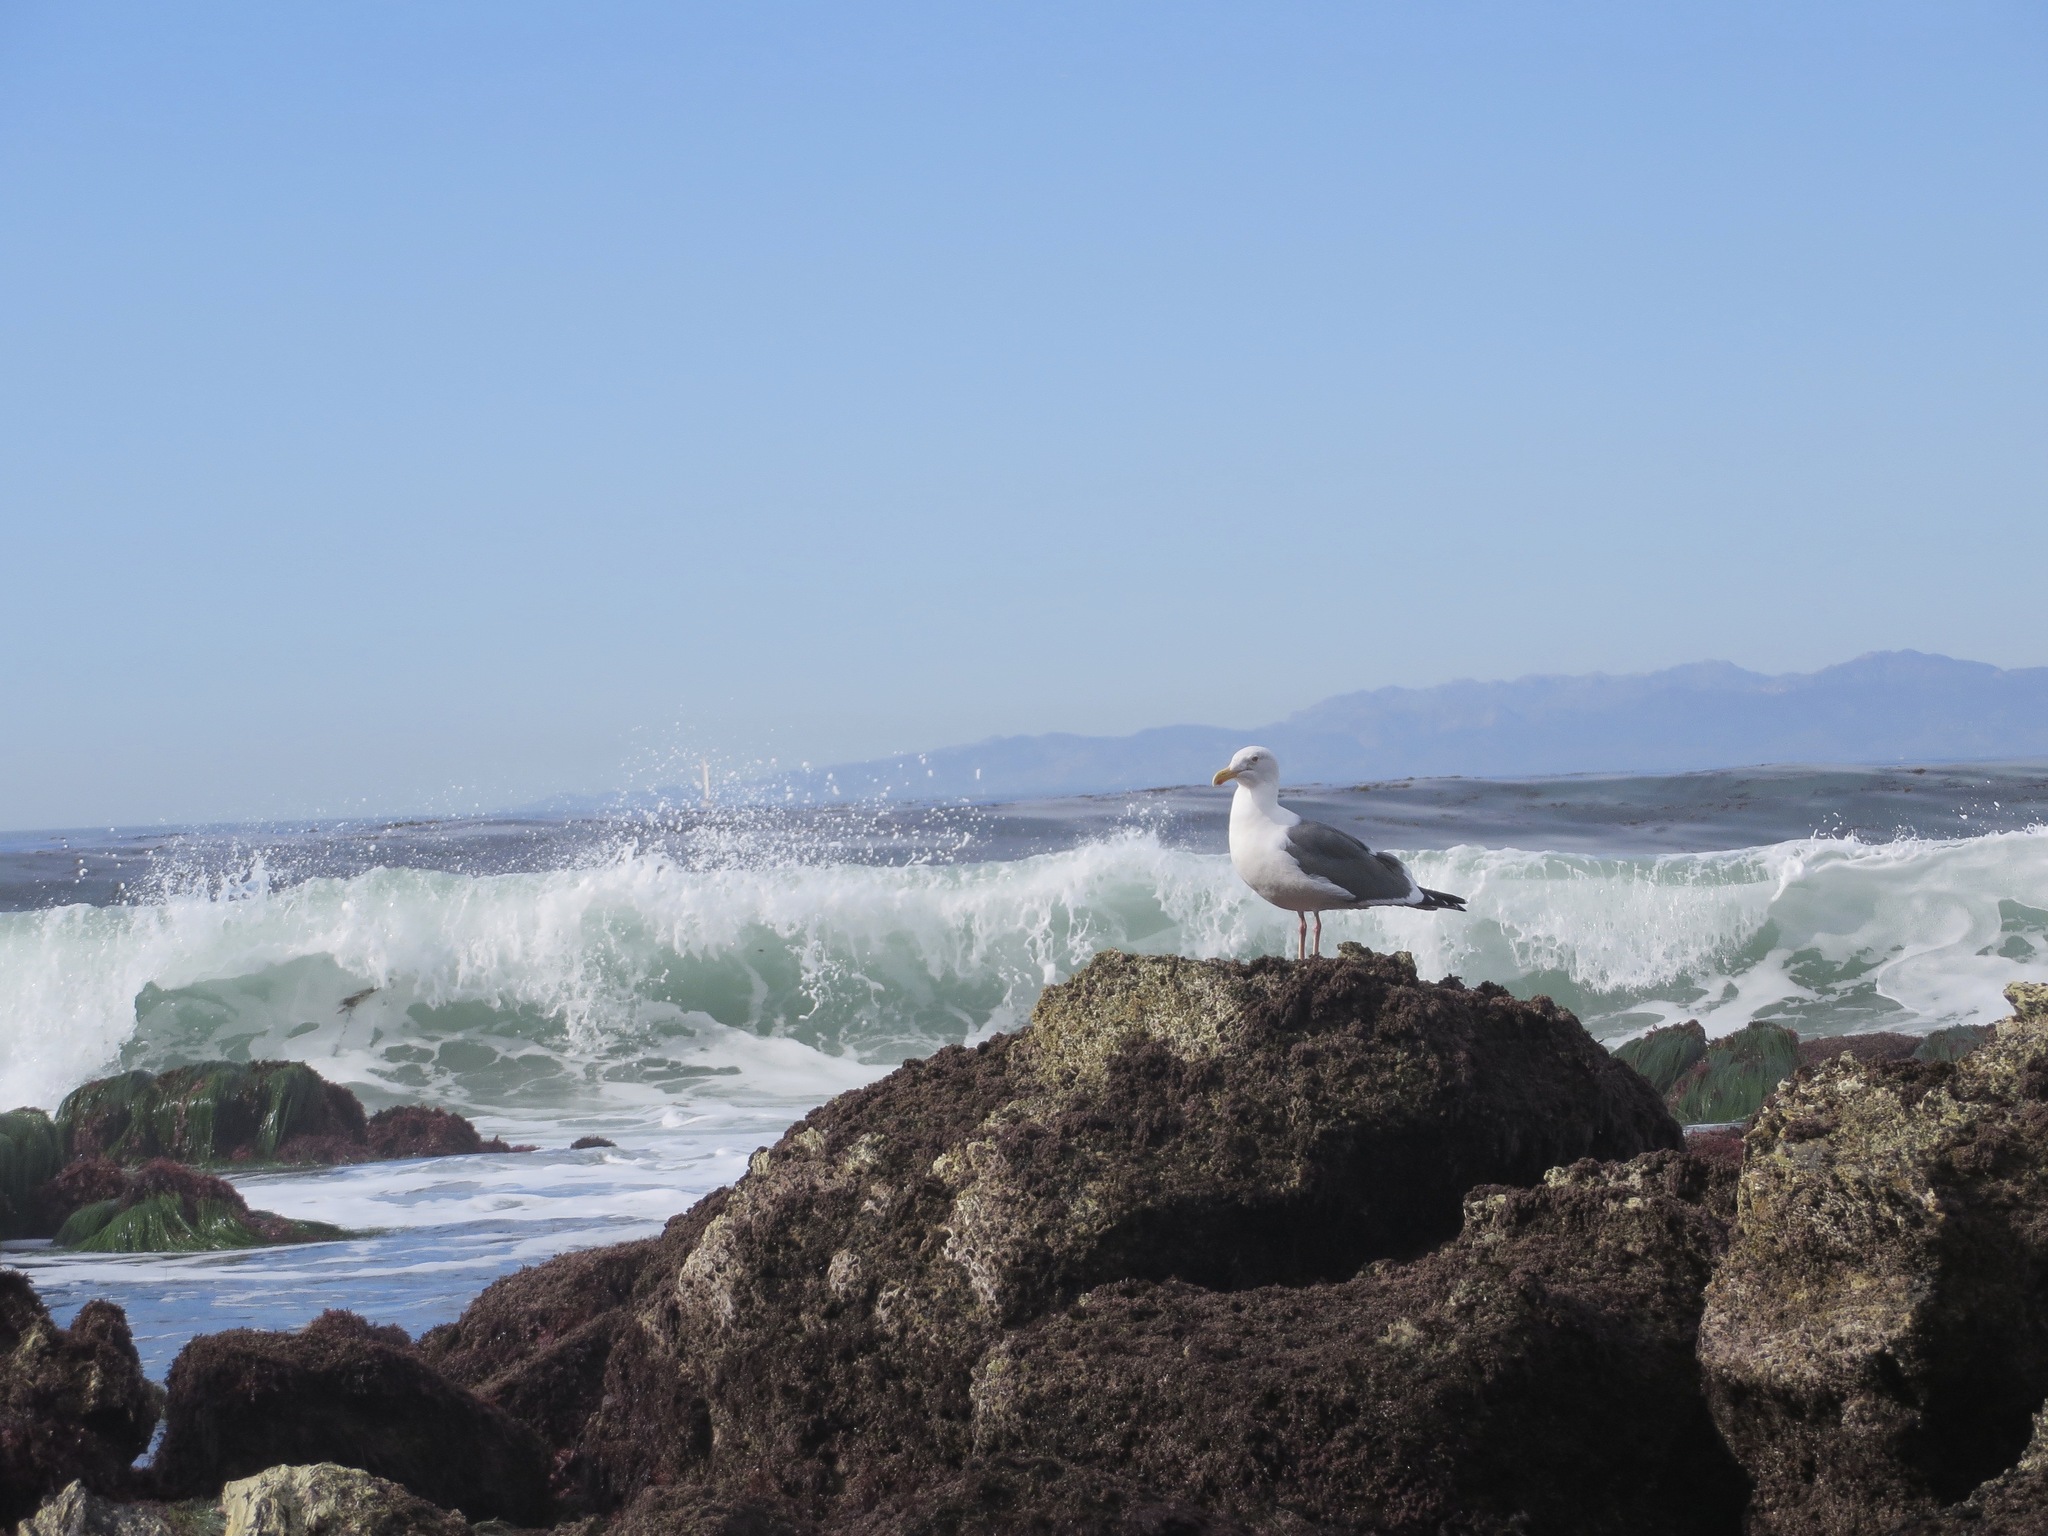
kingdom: Animalia
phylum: Chordata
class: Aves
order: Charadriiformes
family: Laridae
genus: Larus
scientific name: Larus occidentalis
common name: Western gull
